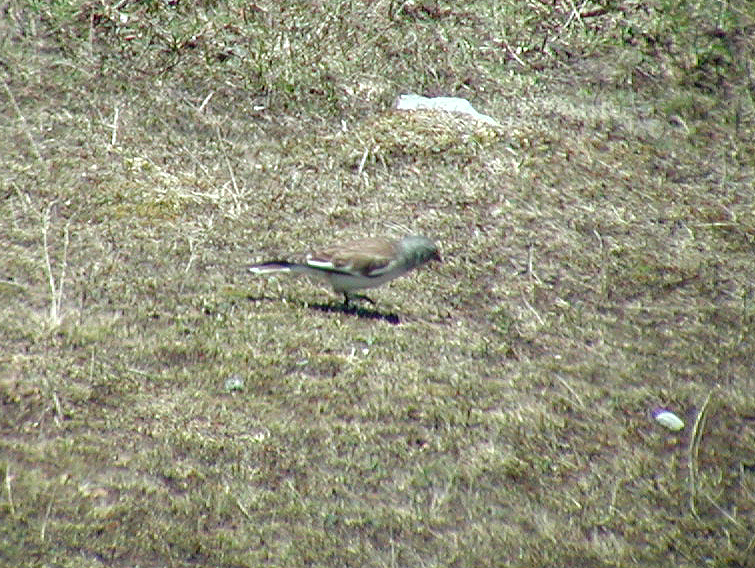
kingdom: Animalia
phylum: Chordata
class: Aves
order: Passeriformes
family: Passeridae
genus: Montifringilla
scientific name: Montifringilla nivalis
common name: White-winged snowfinch
